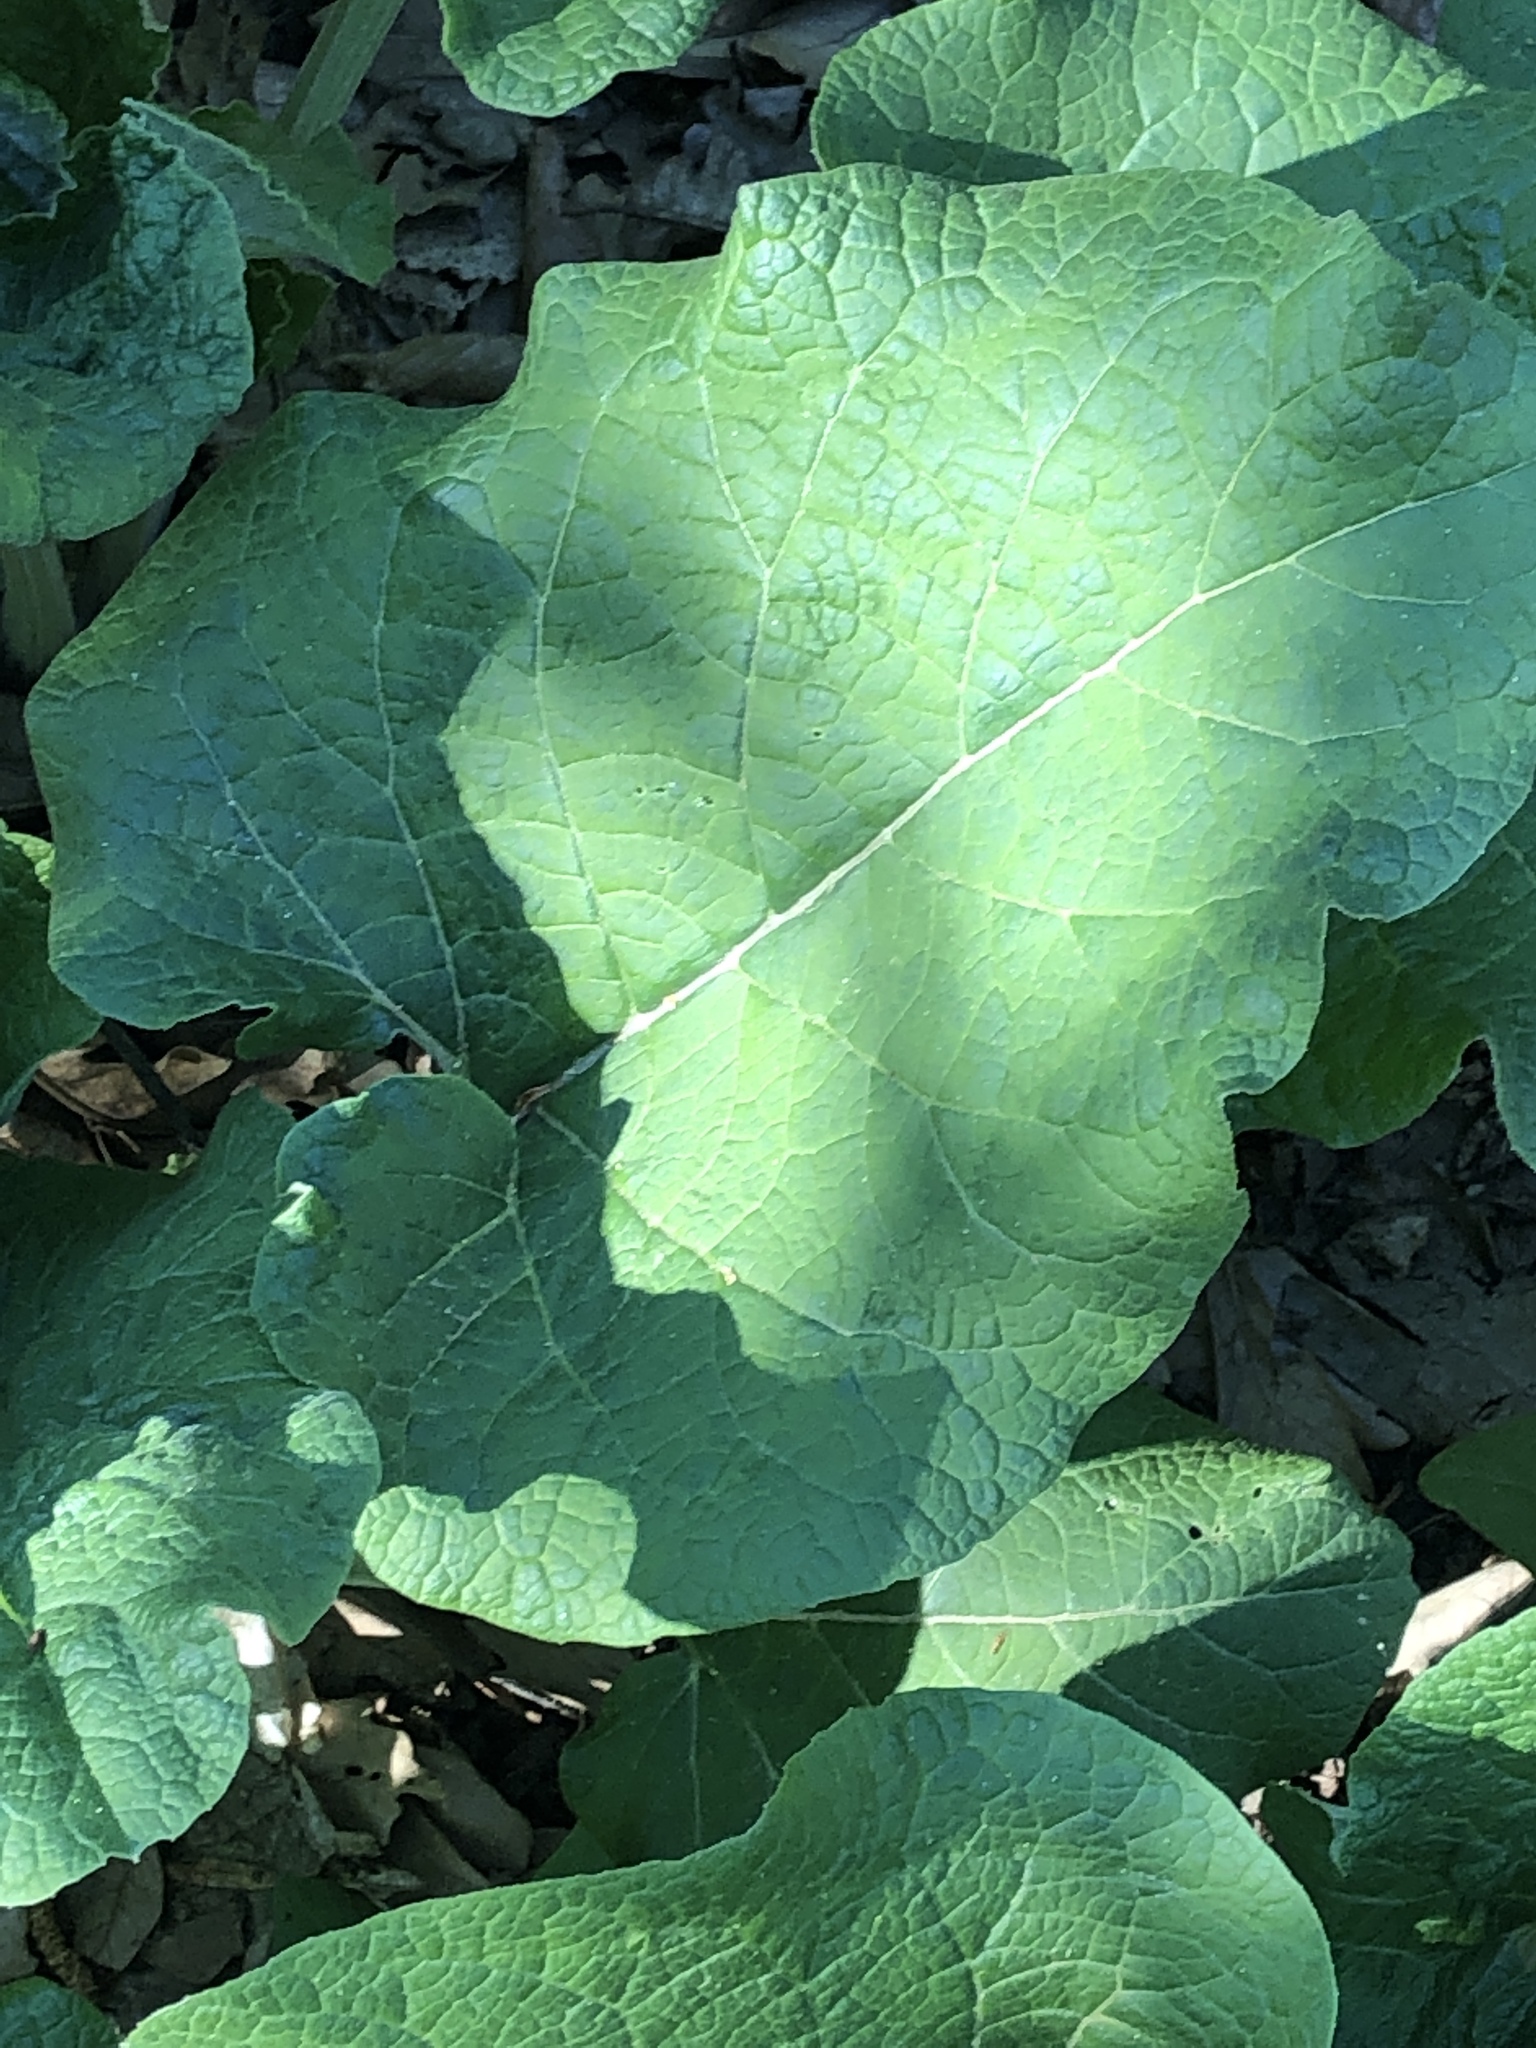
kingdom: Plantae
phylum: Tracheophyta
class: Magnoliopsida
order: Asterales
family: Asteraceae
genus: Arctium
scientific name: Arctium lappa
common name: Greater burdock
